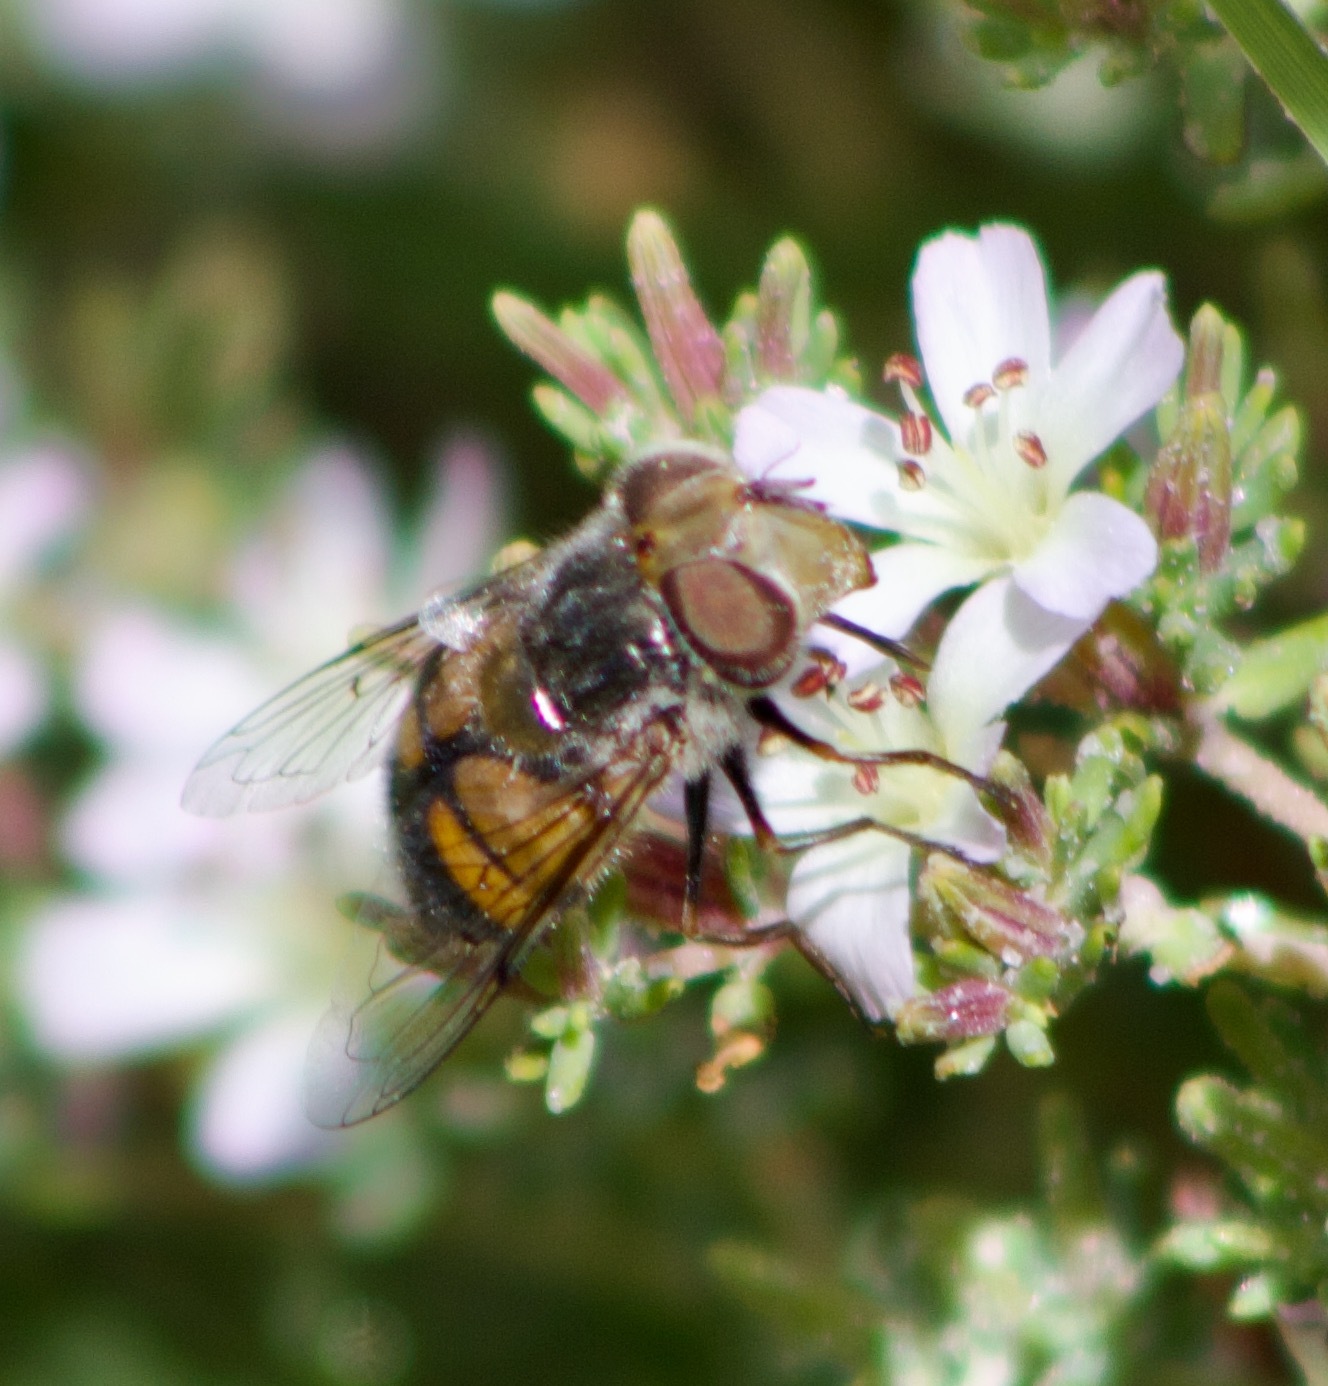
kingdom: Animalia
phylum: Arthropoda
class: Insecta
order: Diptera
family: Syrphidae
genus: Copestylum
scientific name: Copestylum escomeli
